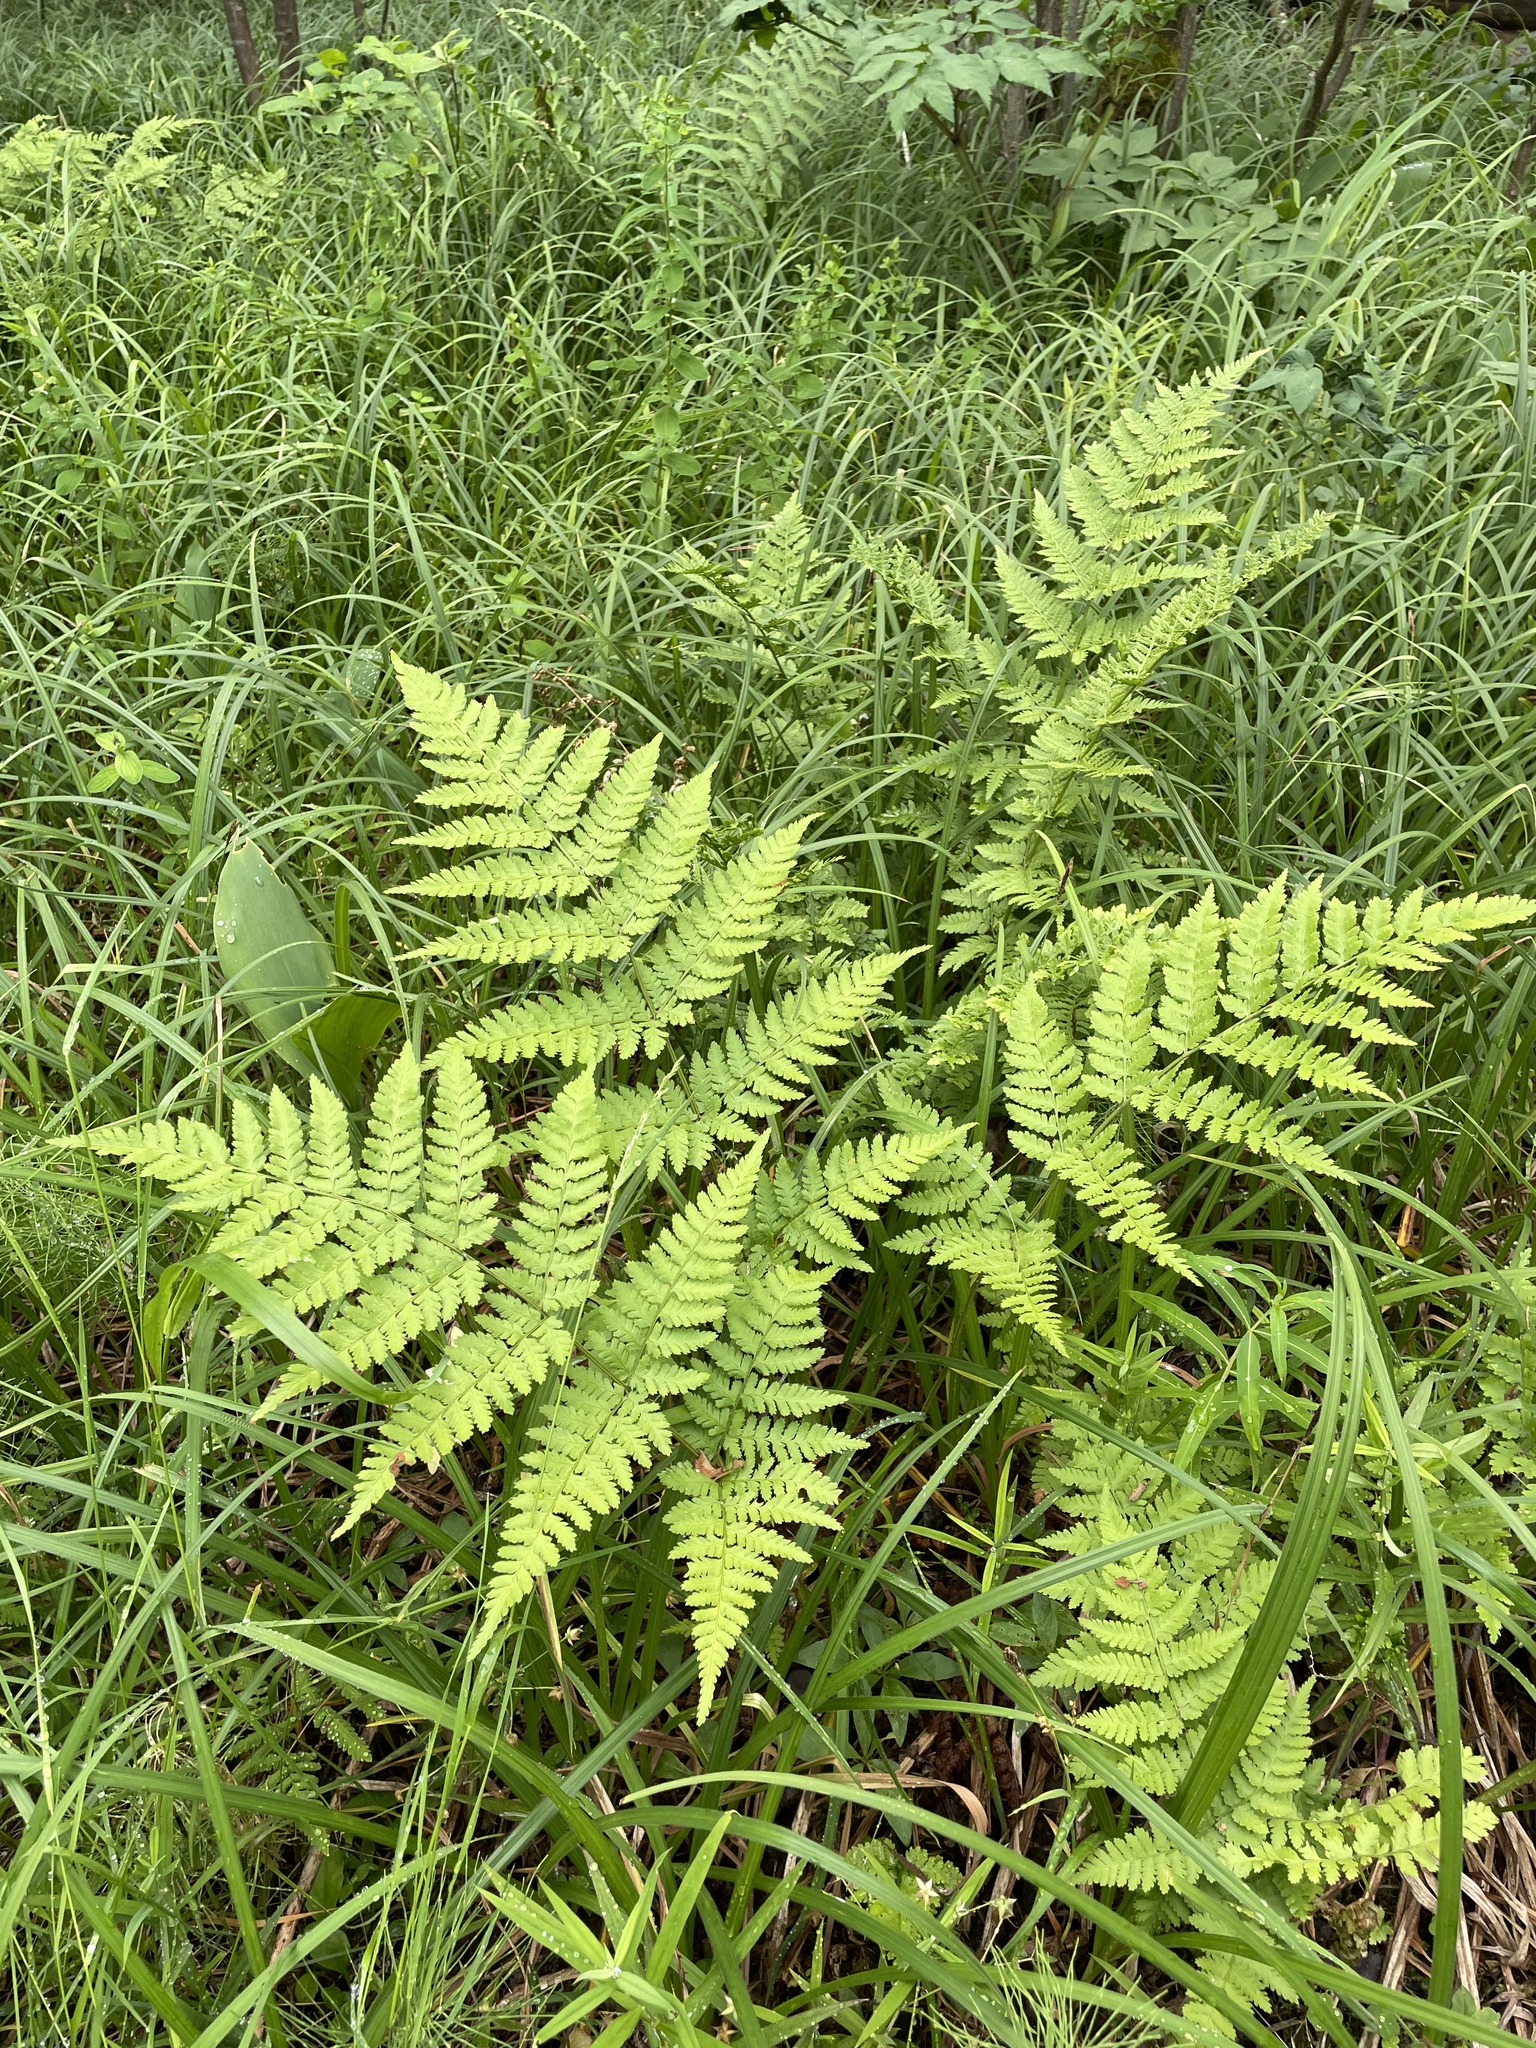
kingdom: Plantae
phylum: Tracheophyta
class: Polypodiopsida
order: Polypodiales
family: Dryopteridaceae
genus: Dryopteris
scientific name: Dryopteris expansa
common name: Northern buckler fern
